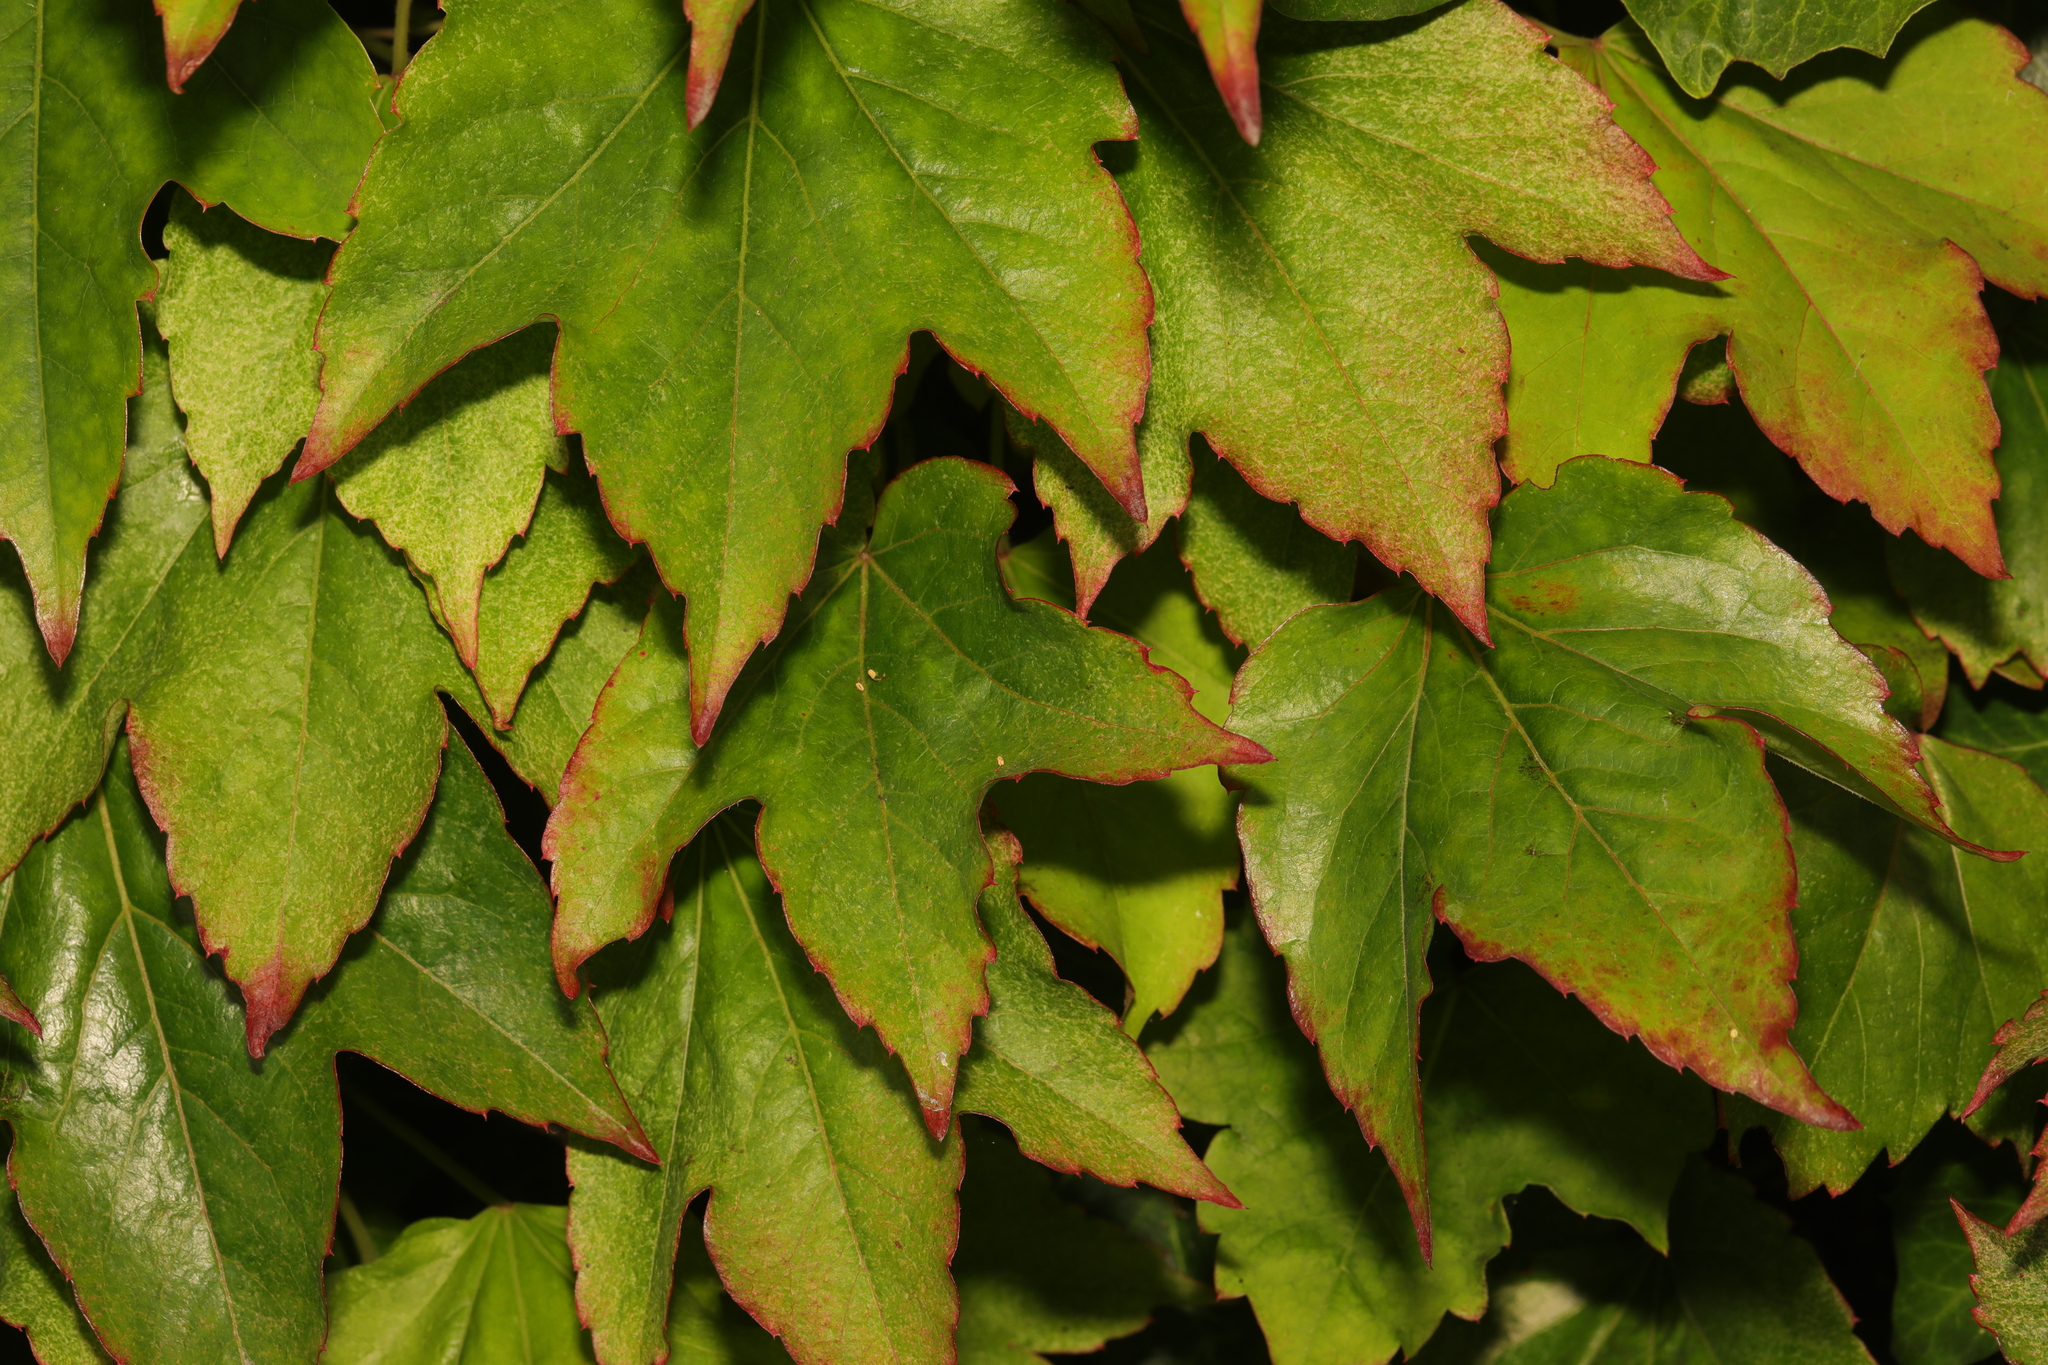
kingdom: Plantae
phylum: Tracheophyta
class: Magnoliopsida
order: Vitales
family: Vitaceae
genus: Parthenocissus
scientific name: Parthenocissus tricuspidata
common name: Boston ivy
